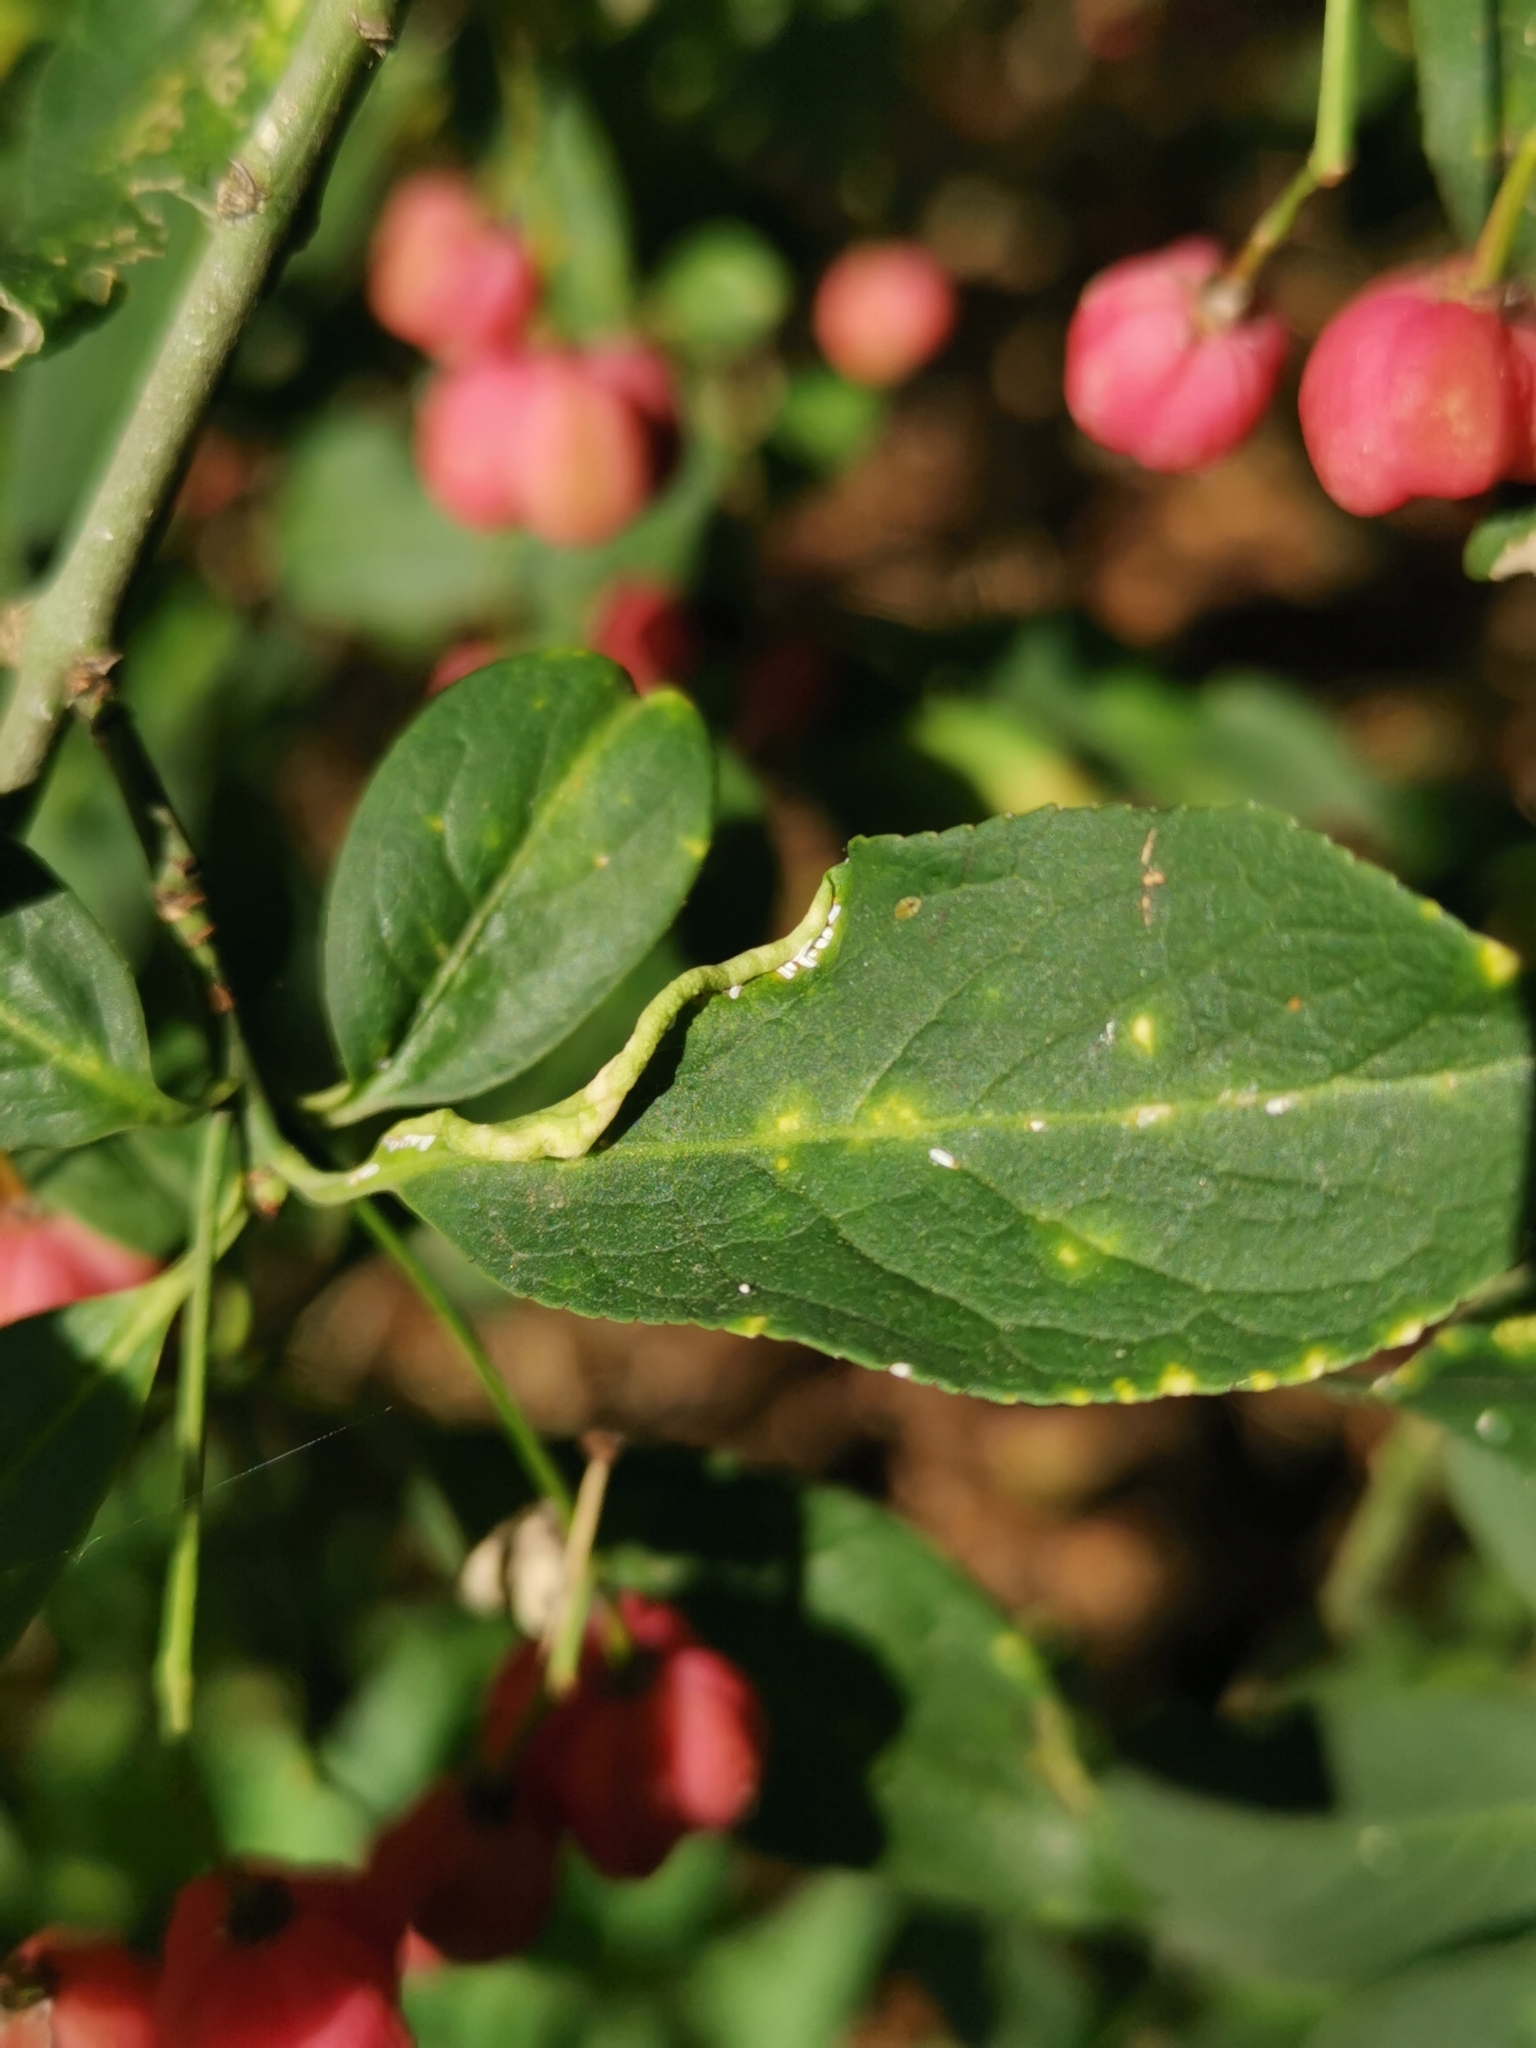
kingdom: Animalia
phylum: Arthropoda
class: Arachnida
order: Trombidiformes
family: Eriophyidae
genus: Stenacis
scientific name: Stenacis evonymi
